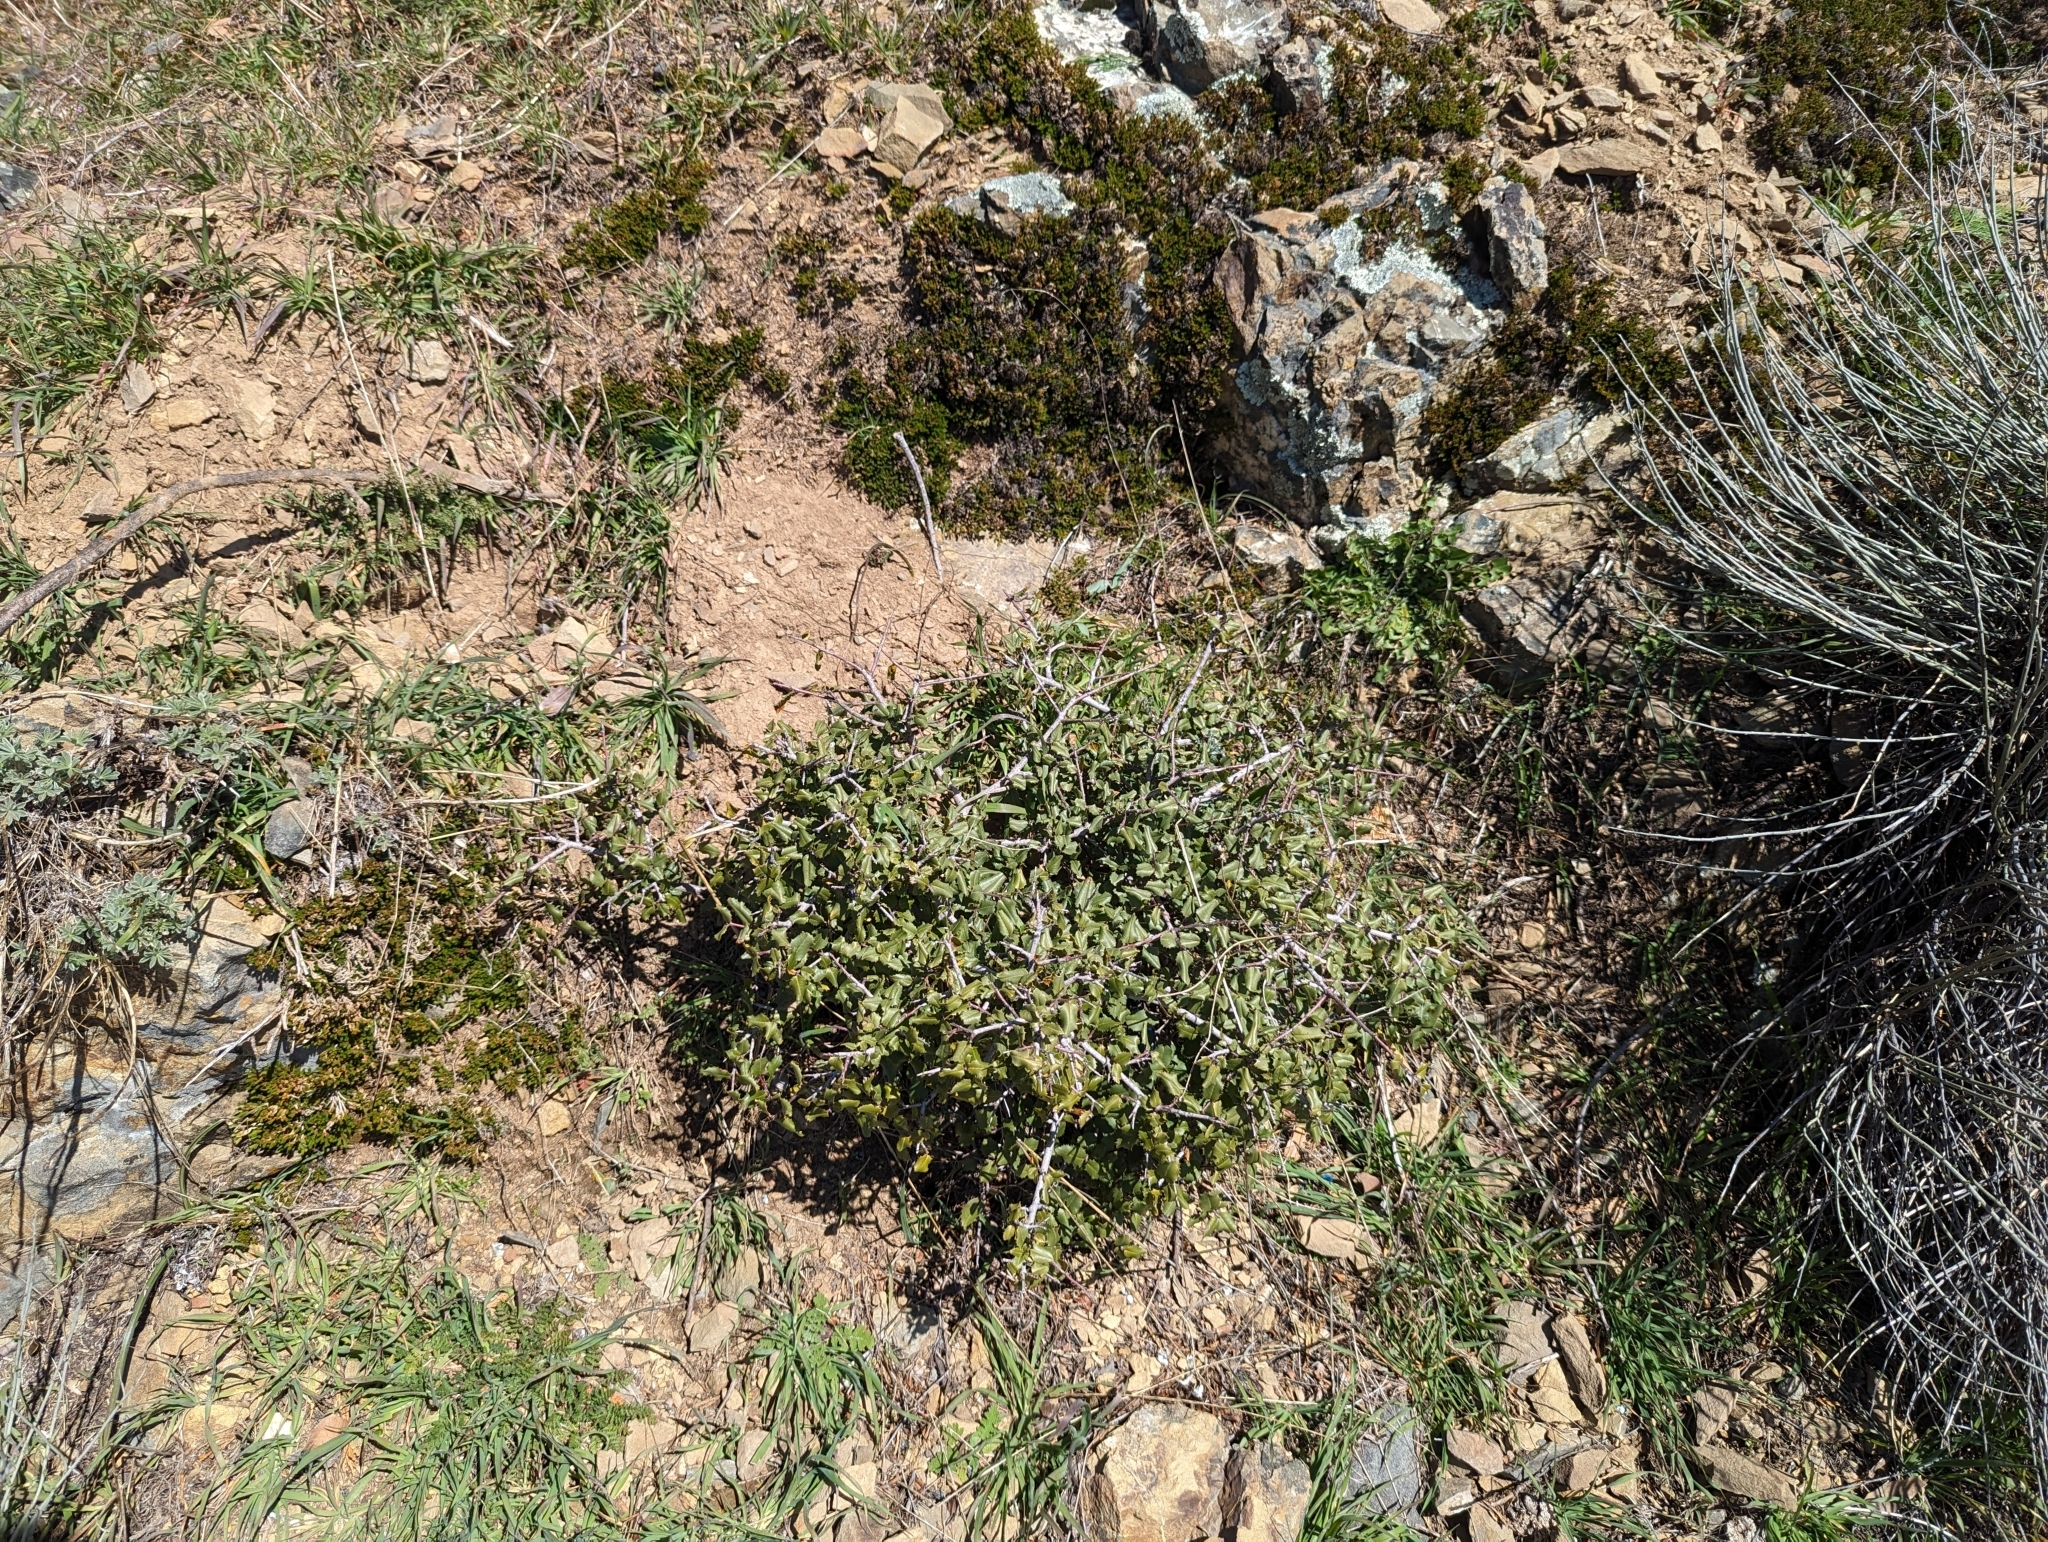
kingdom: Plantae
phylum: Tracheophyta
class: Magnoliopsida
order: Rosales
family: Rhamnaceae
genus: Endotropis
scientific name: Endotropis crocea
